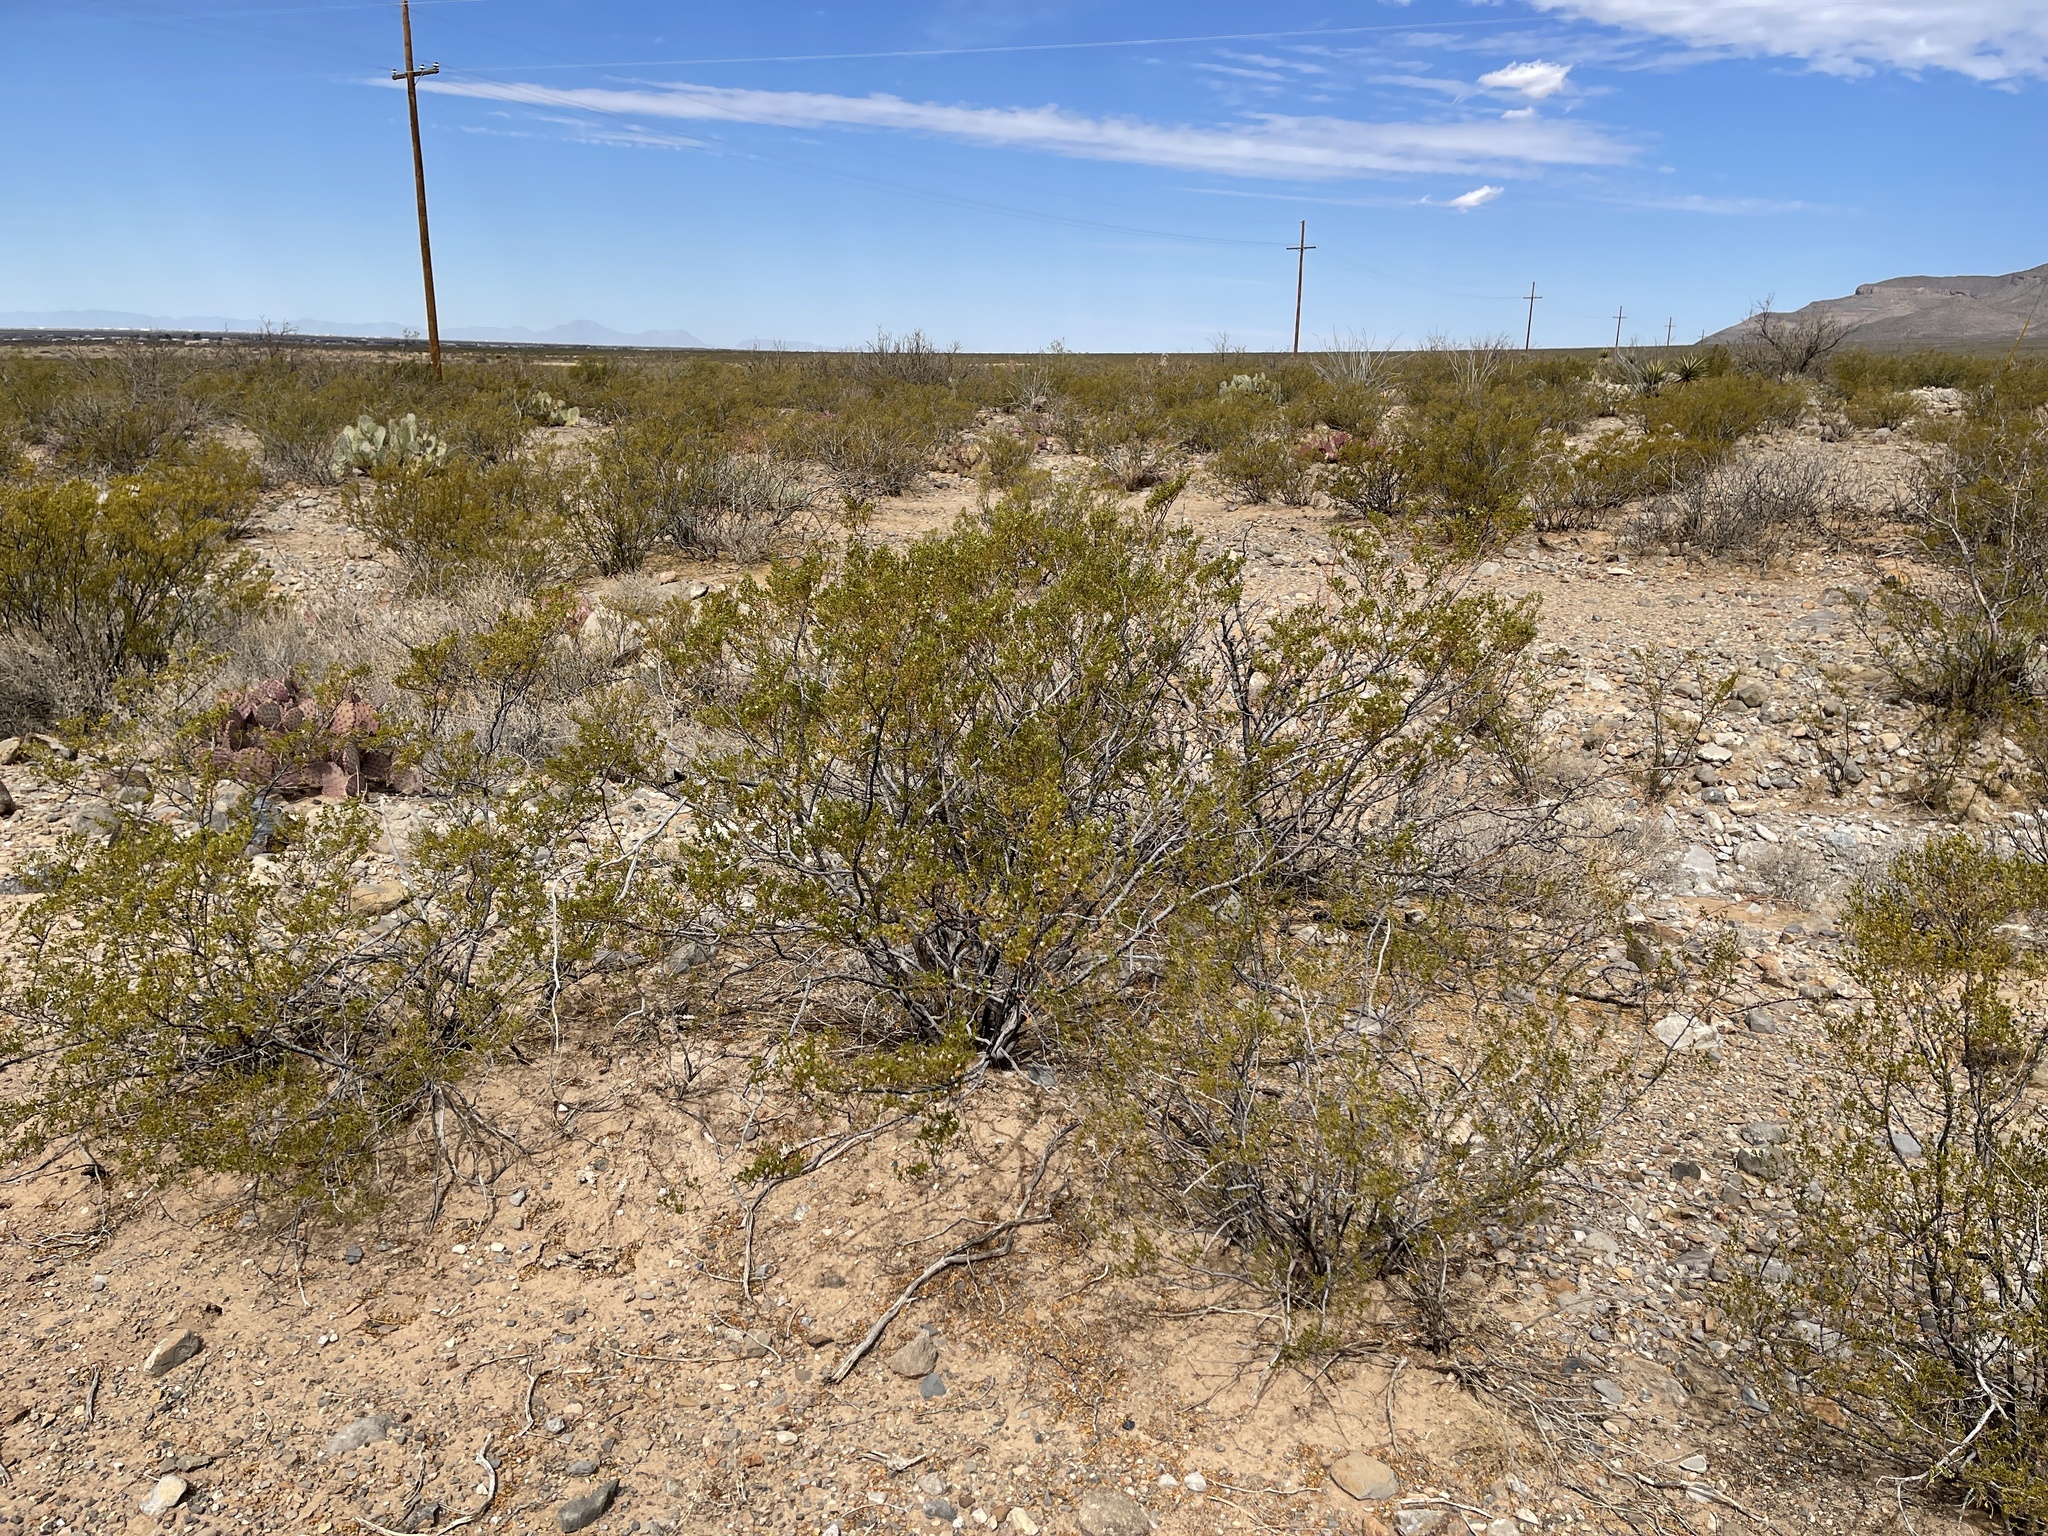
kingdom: Plantae
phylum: Tracheophyta
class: Magnoliopsida
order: Zygophyllales
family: Zygophyllaceae
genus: Larrea
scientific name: Larrea tridentata
